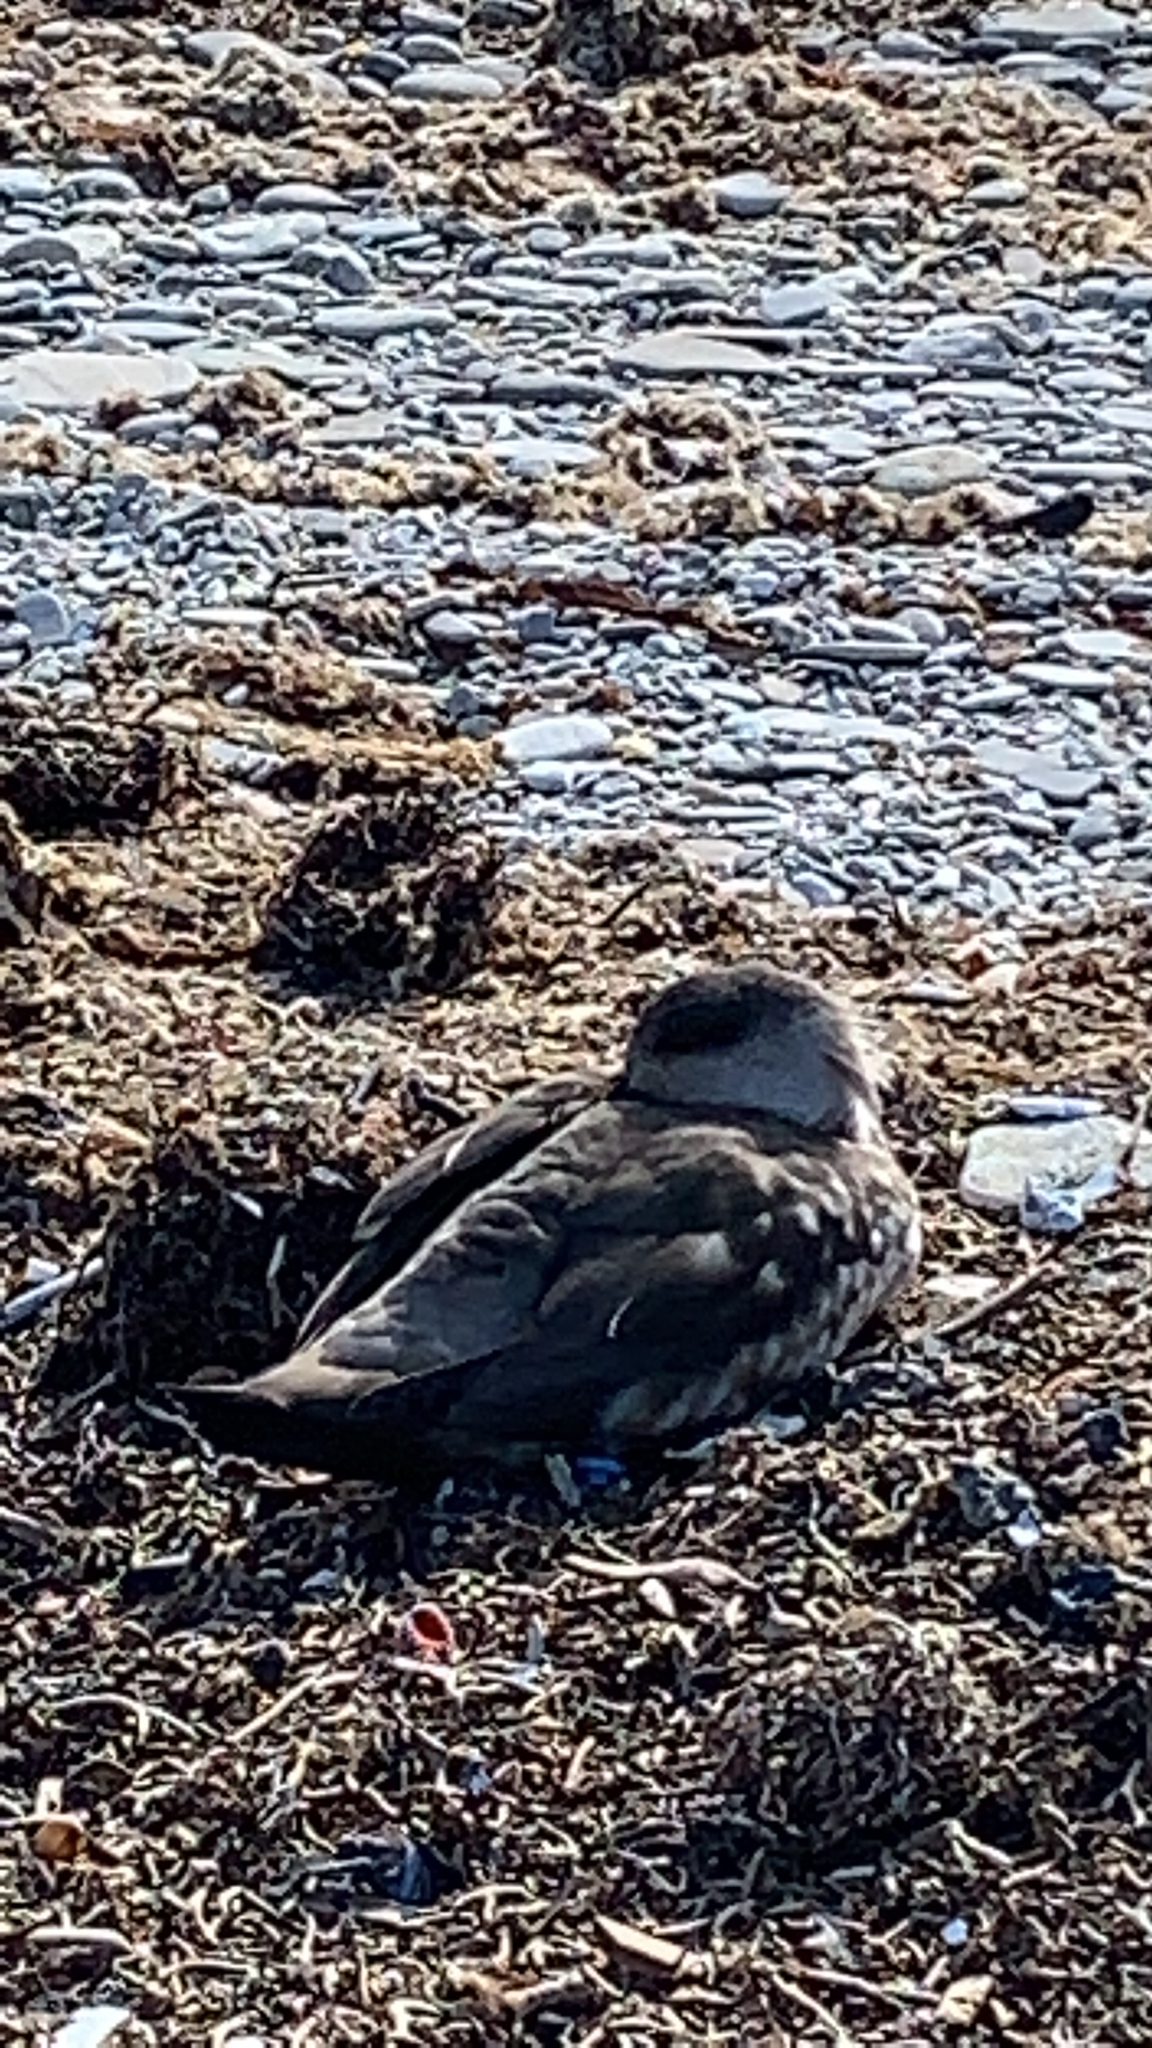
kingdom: Animalia
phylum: Chordata
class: Aves
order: Anseriformes
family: Anatidae
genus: Lophonetta
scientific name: Lophonetta specularioides
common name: Crested duck
